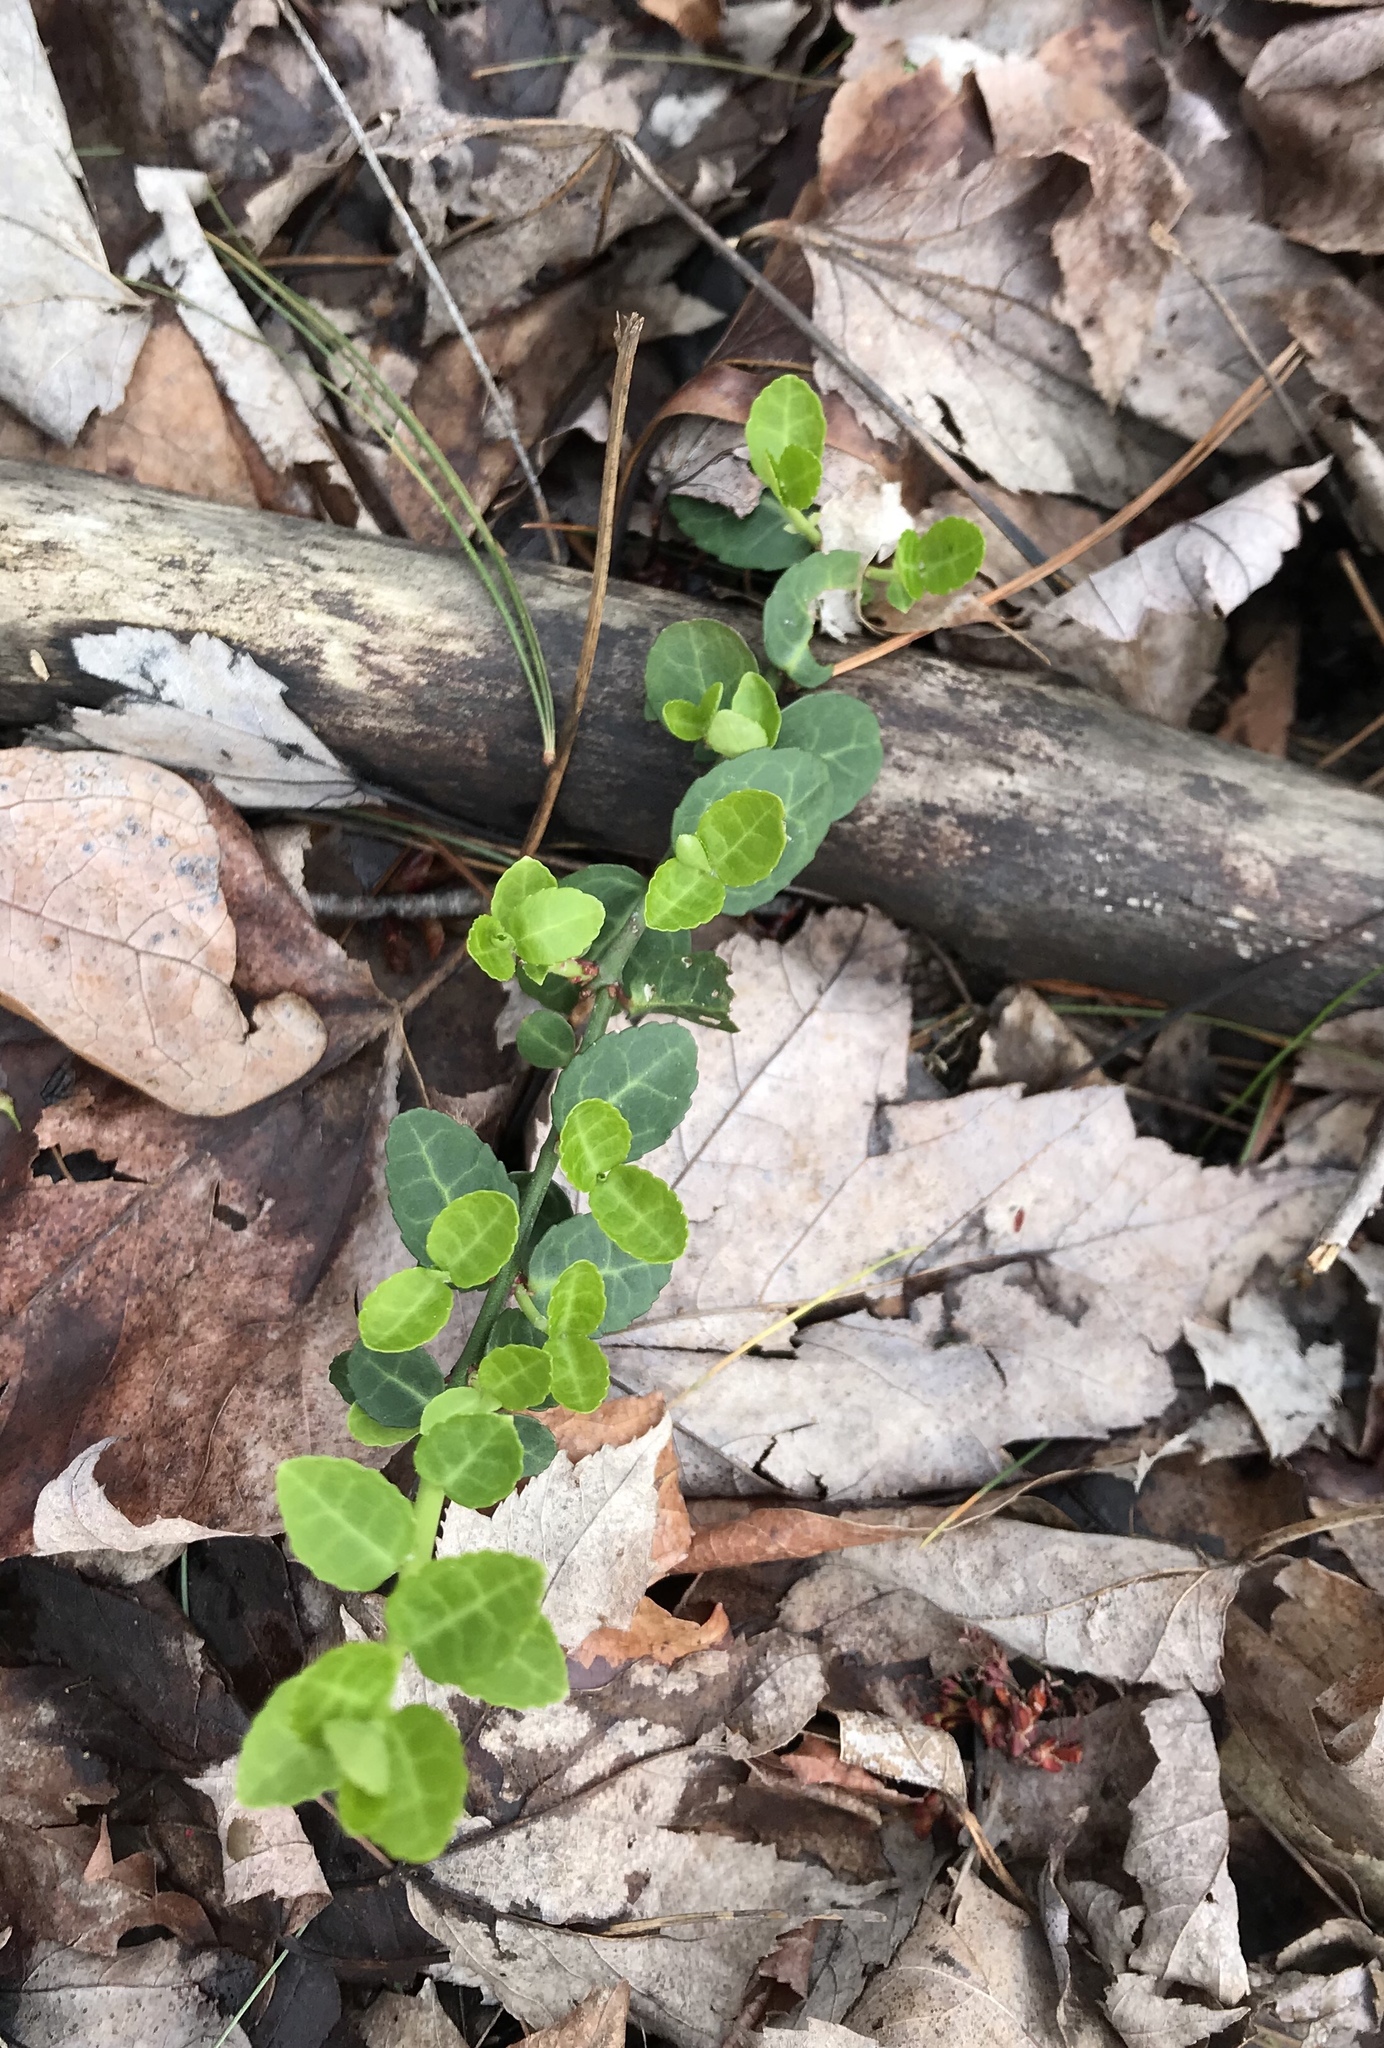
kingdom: Plantae
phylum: Tracheophyta
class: Magnoliopsida
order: Celastrales
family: Celastraceae
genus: Euonymus
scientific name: Euonymus fortunei
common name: Climbing euonymus
